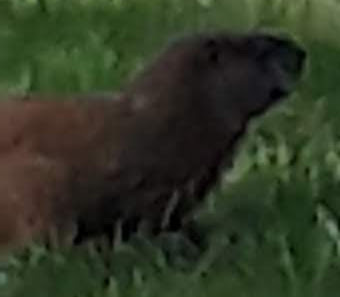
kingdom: Animalia
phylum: Chordata
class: Mammalia
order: Rodentia
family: Sciuridae
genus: Marmota
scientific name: Marmota monax
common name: Groundhog
